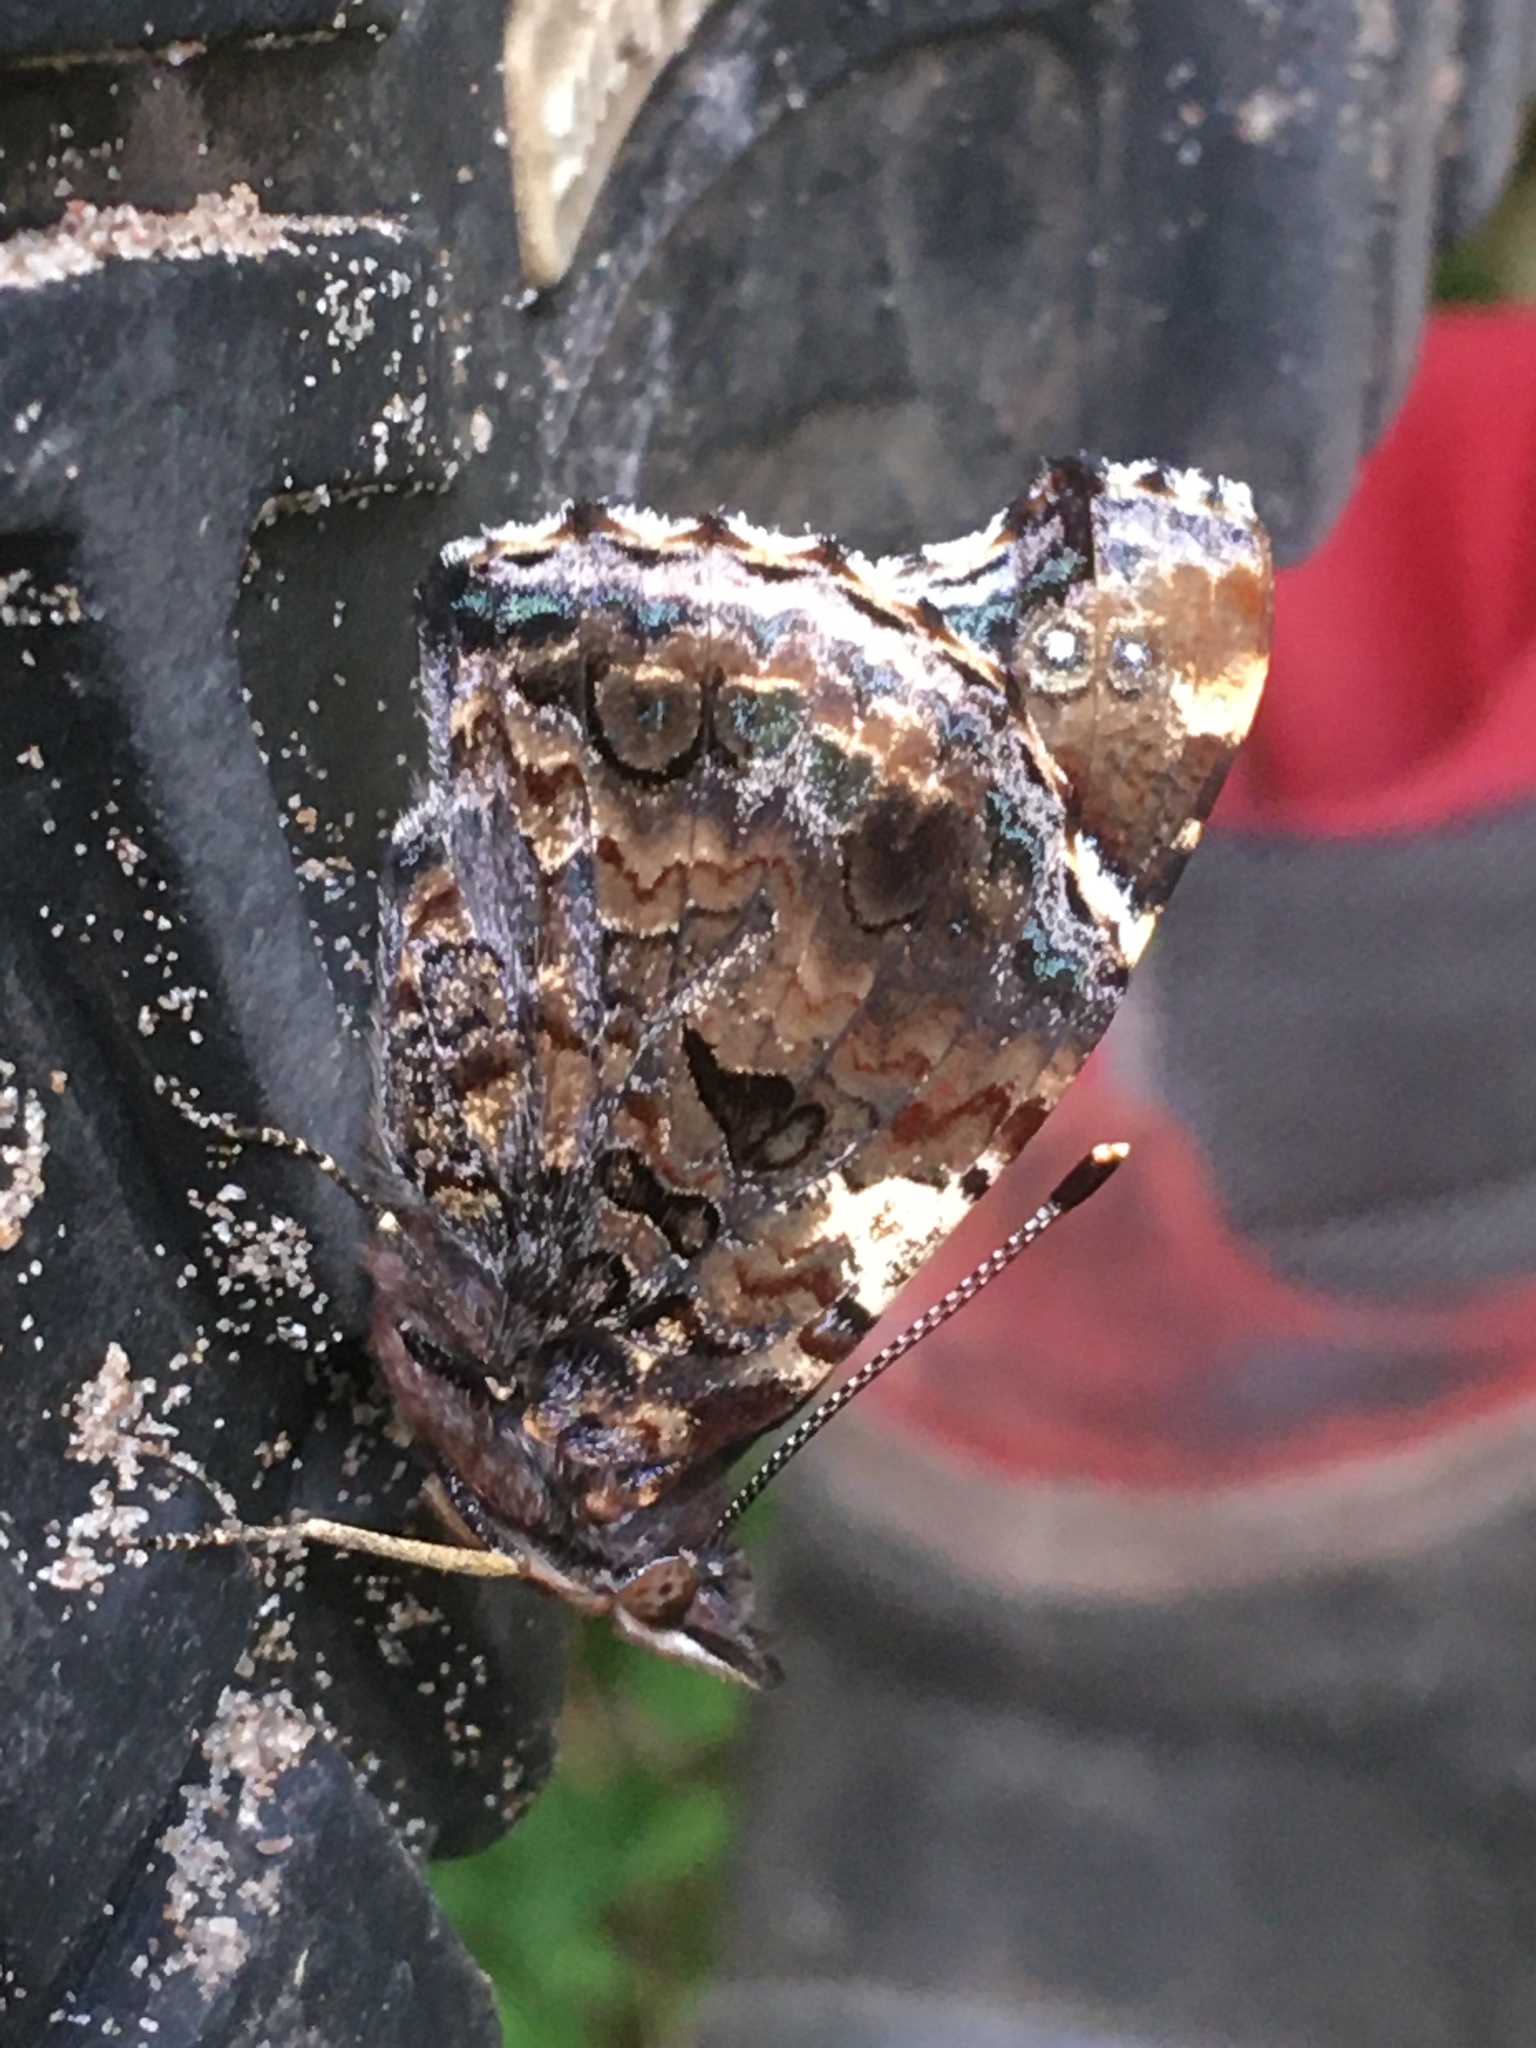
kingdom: Animalia
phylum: Arthropoda
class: Insecta
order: Lepidoptera
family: Nymphalidae
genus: Vanessa
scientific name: Vanessa atalanta
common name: Red admiral
